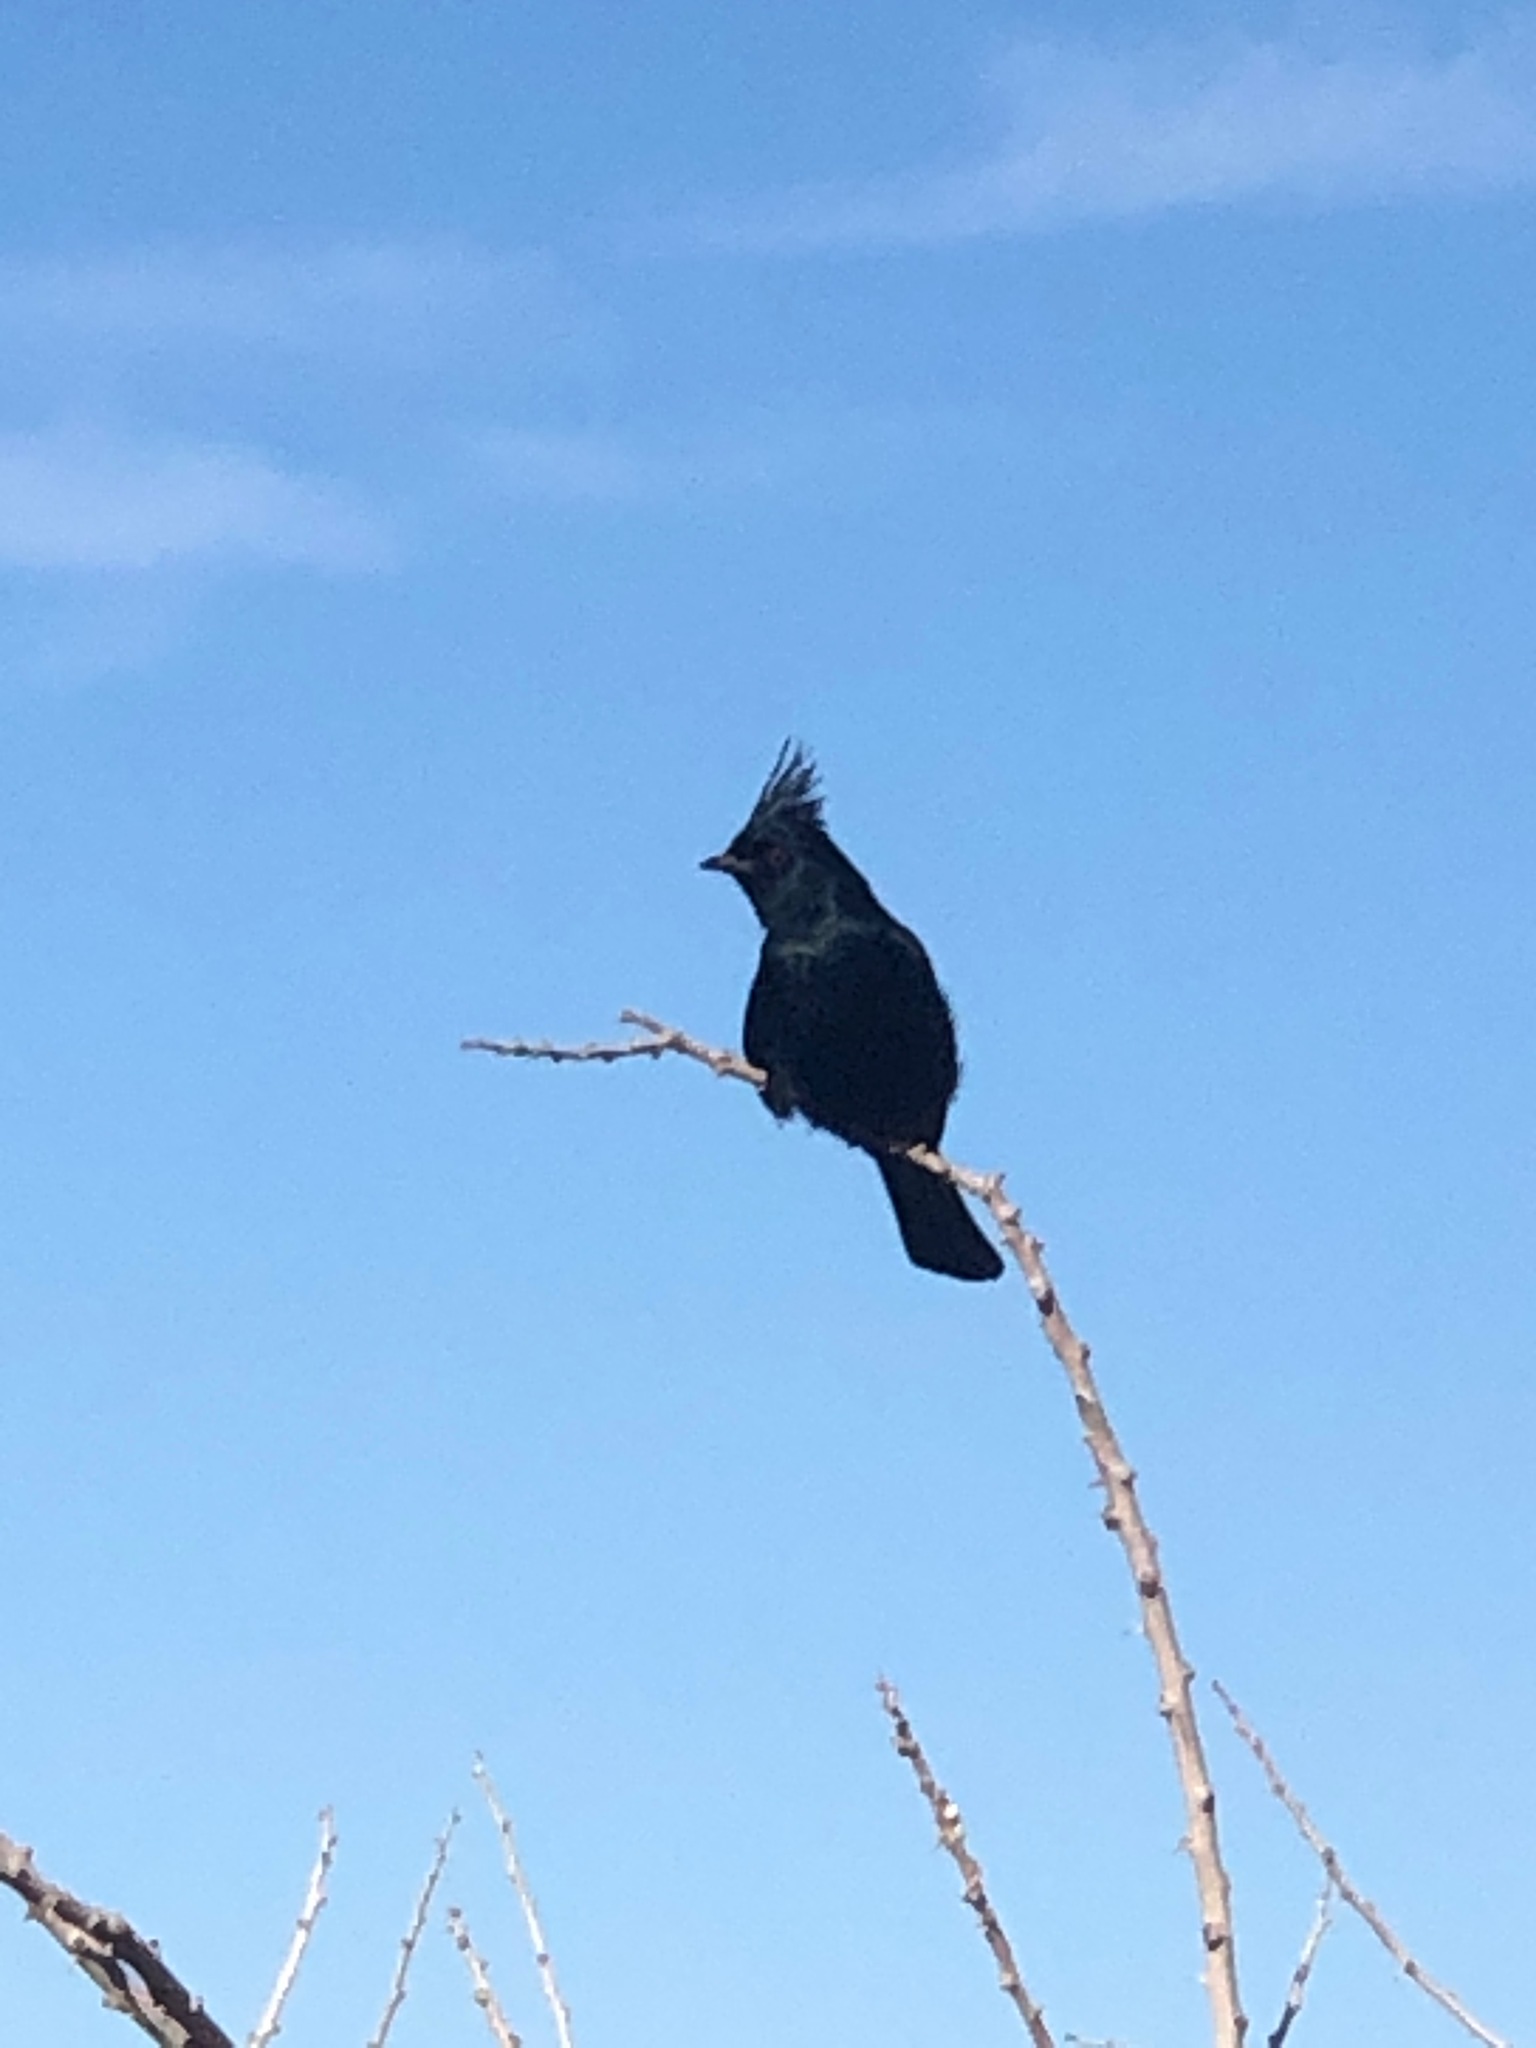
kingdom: Animalia
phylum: Chordata
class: Aves
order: Passeriformes
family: Ptilogonatidae
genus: Phainopepla
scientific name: Phainopepla nitens
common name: Phainopepla
